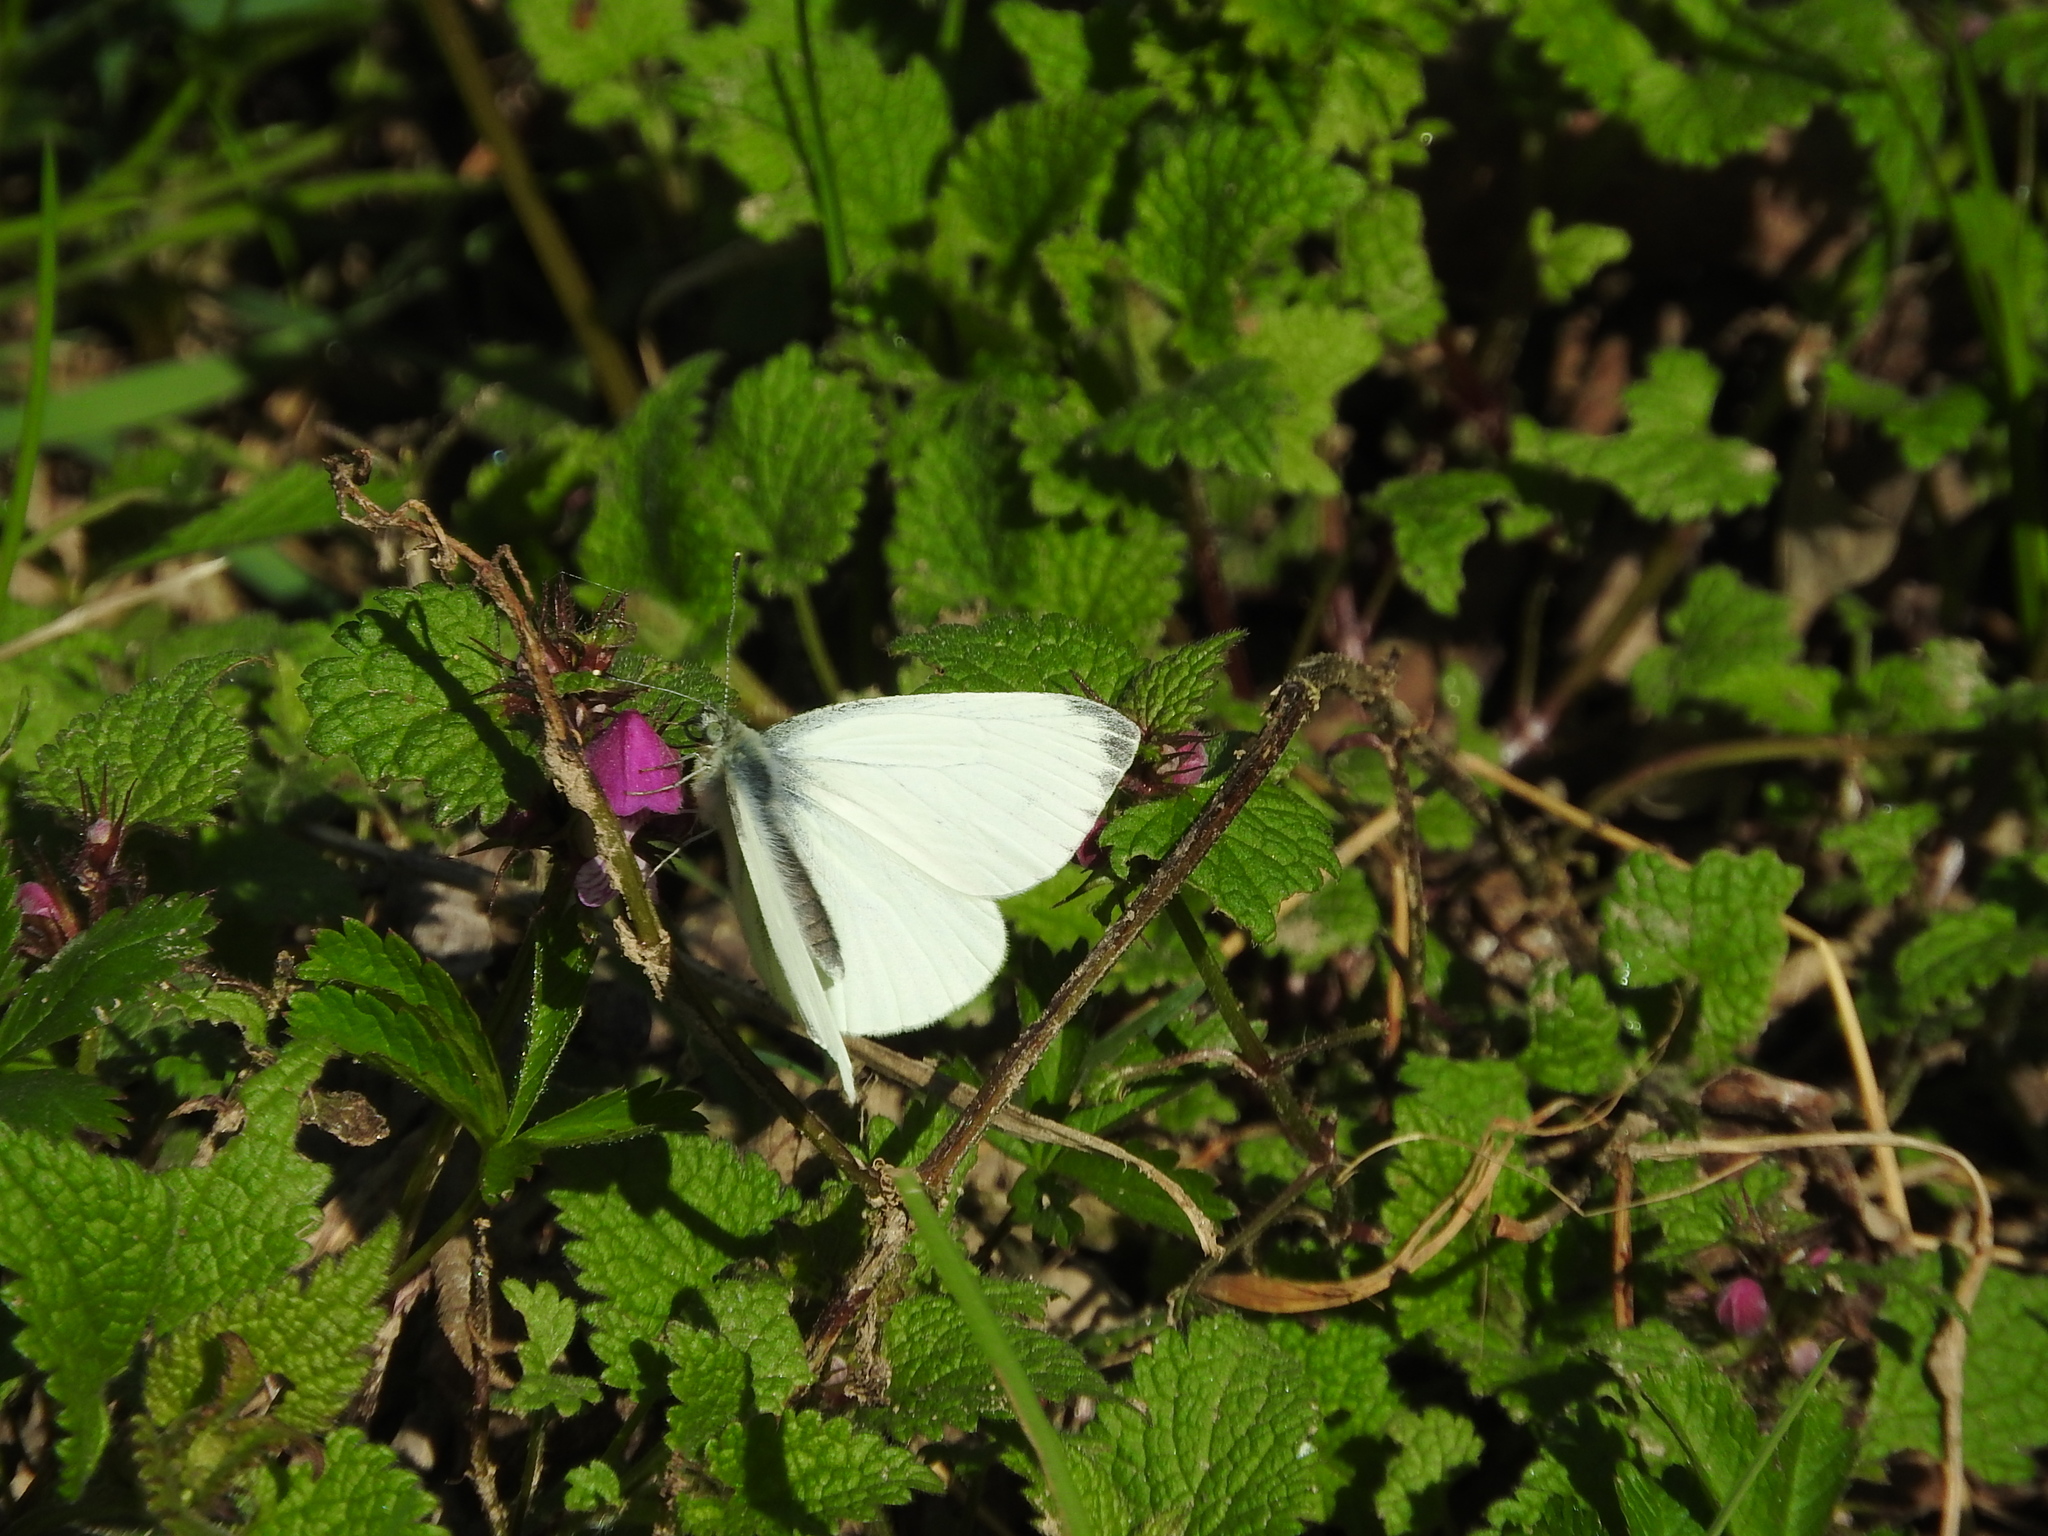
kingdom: Animalia
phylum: Arthropoda
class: Insecta
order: Lepidoptera
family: Pieridae
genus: Pieris
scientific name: Pieris napi
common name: Green-veined white
